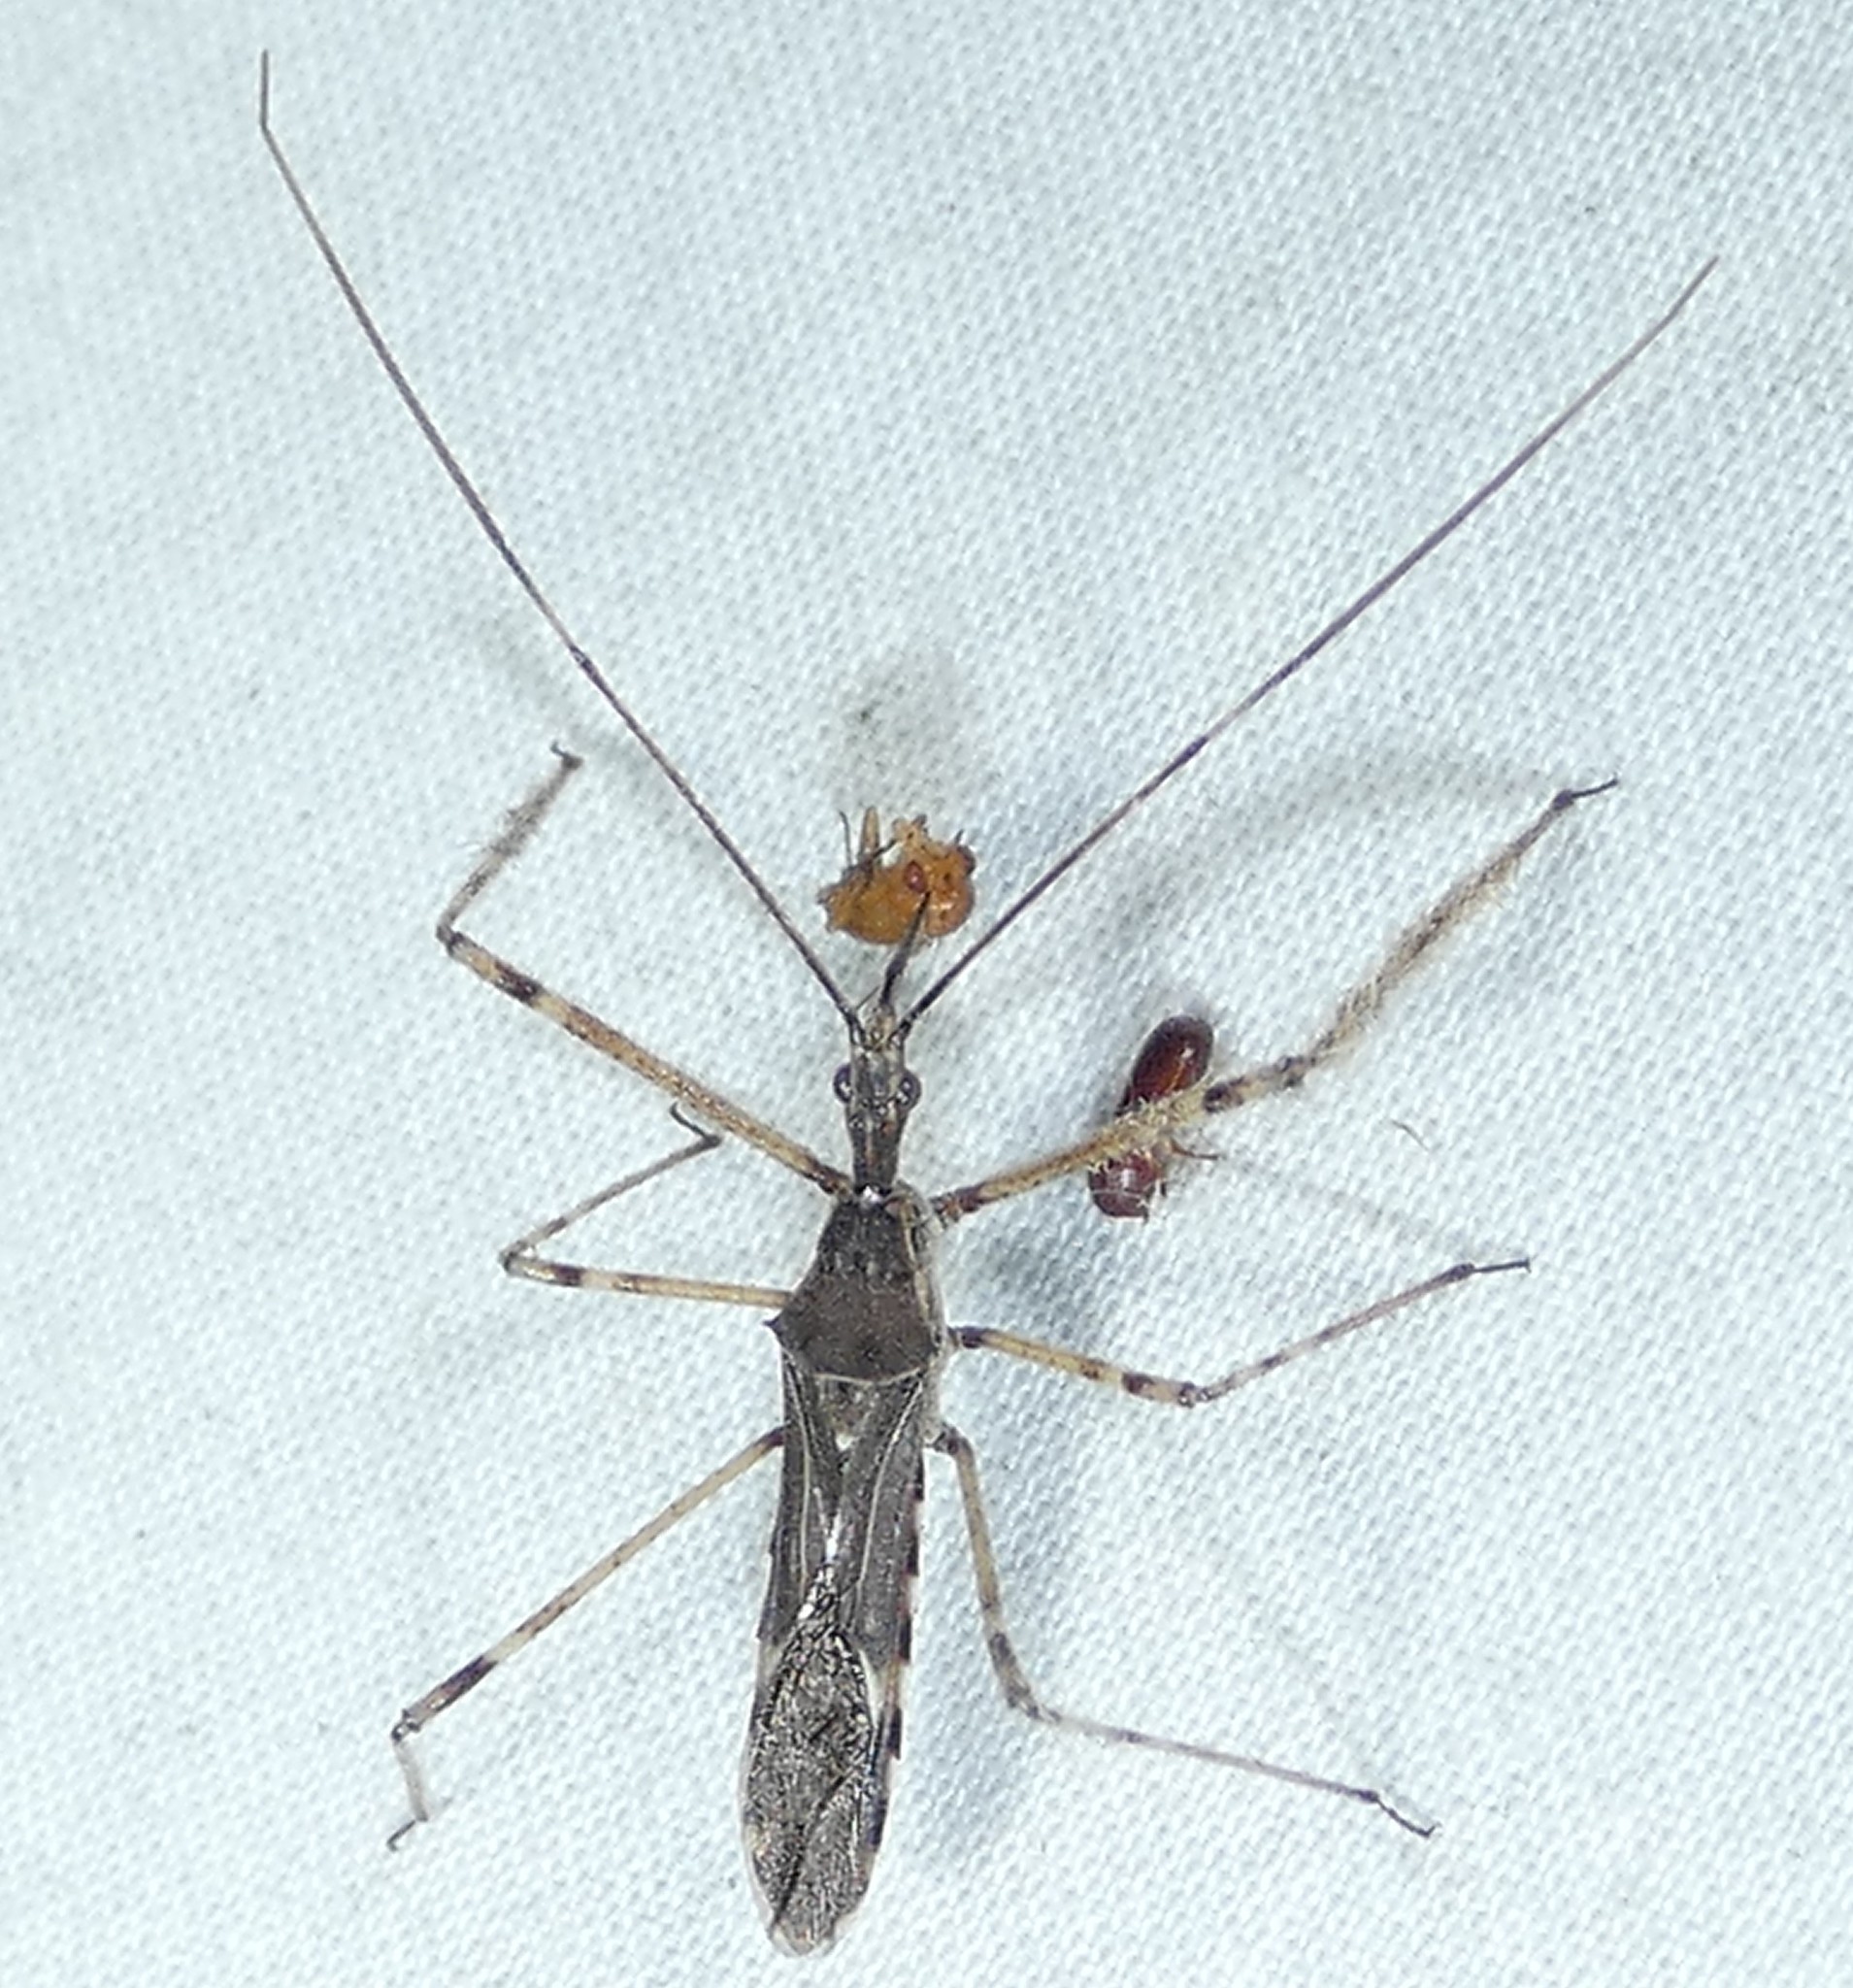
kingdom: Animalia
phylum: Arthropoda
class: Insecta
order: Hemiptera
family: Reduviidae
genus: Zelus
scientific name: Zelus tetracanthus
